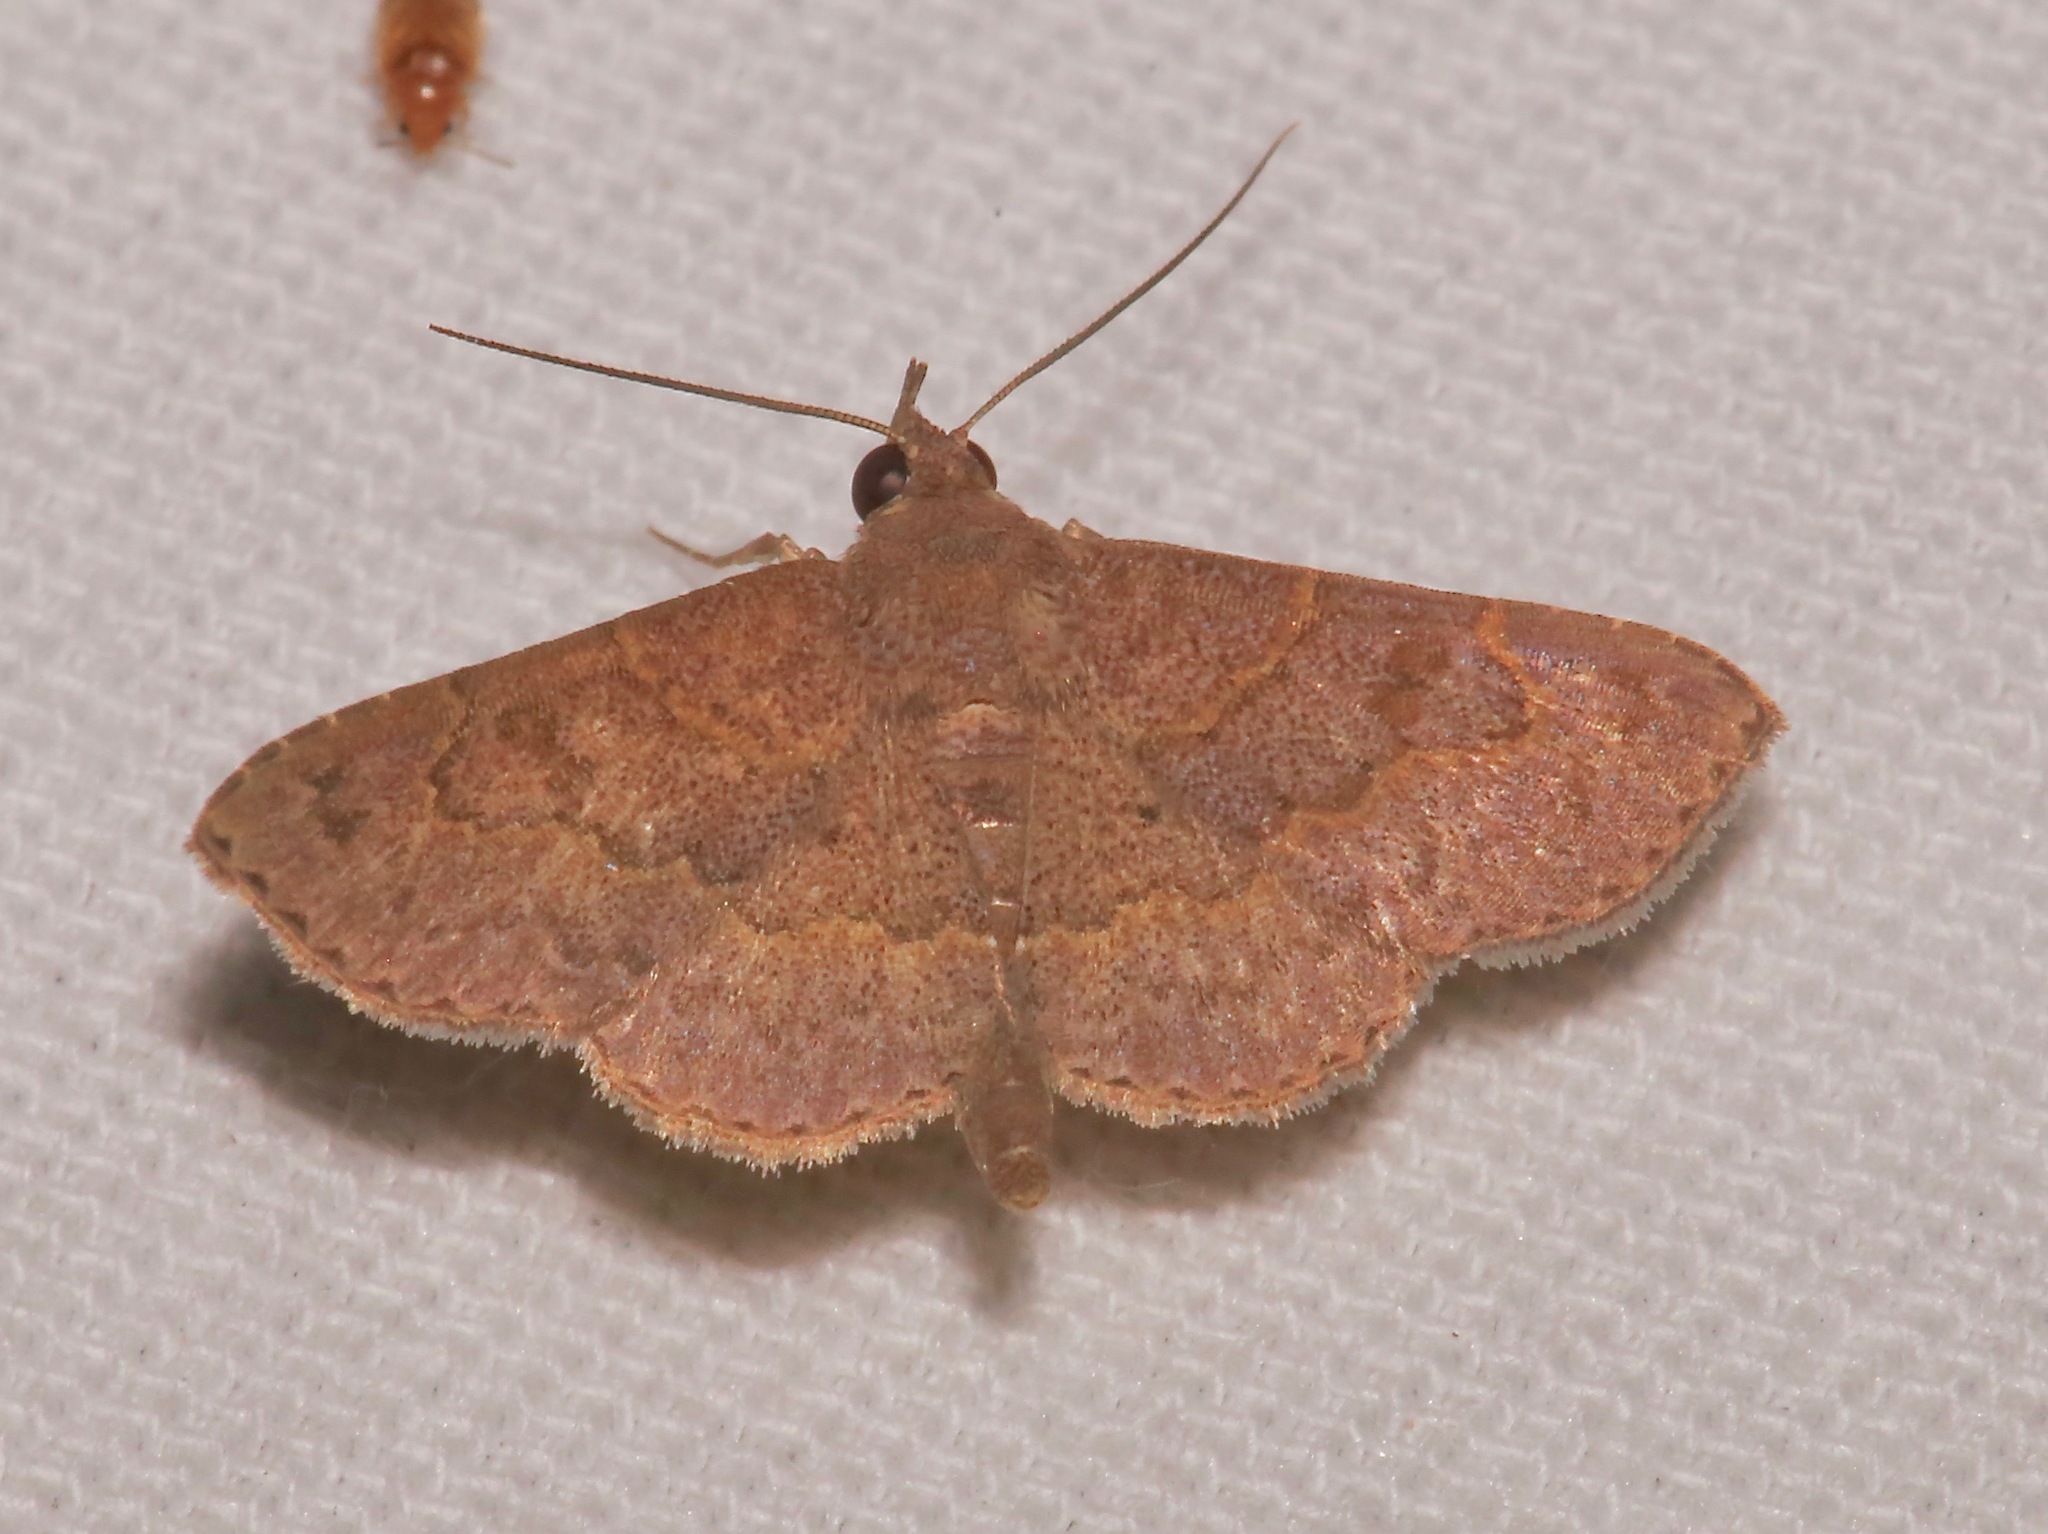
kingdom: Animalia
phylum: Arthropoda
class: Insecta
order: Lepidoptera
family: Erebidae
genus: Antiblemma
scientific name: Antiblemma perva
